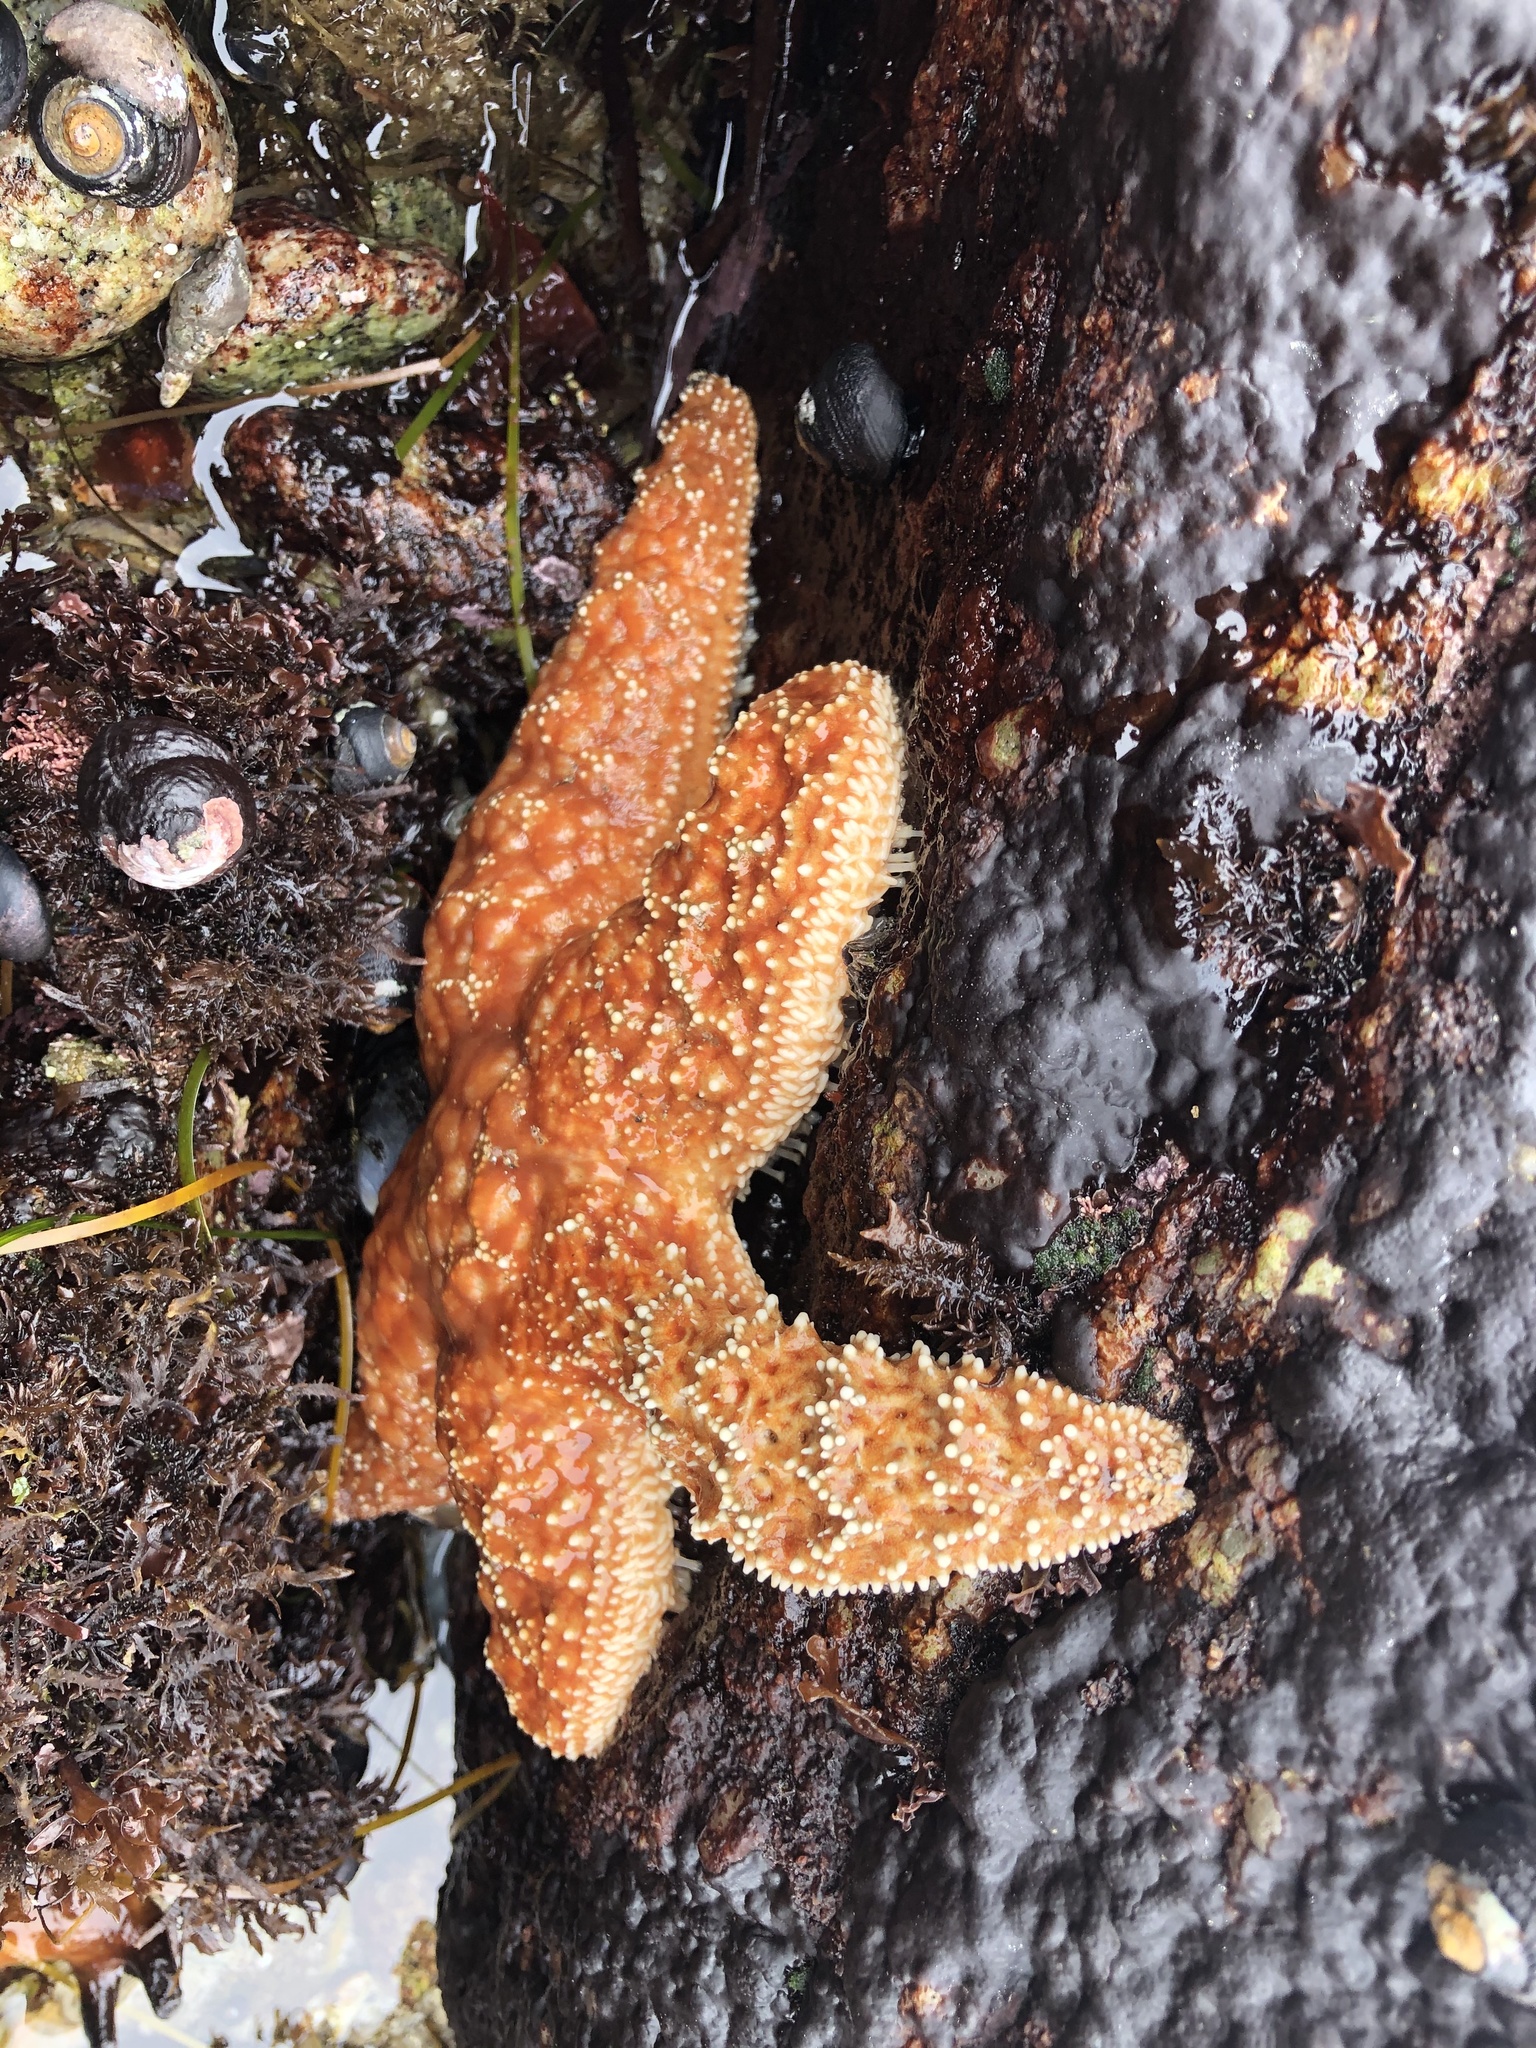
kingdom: Animalia
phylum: Echinodermata
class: Asteroidea
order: Forcipulatida
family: Asteriidae
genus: Pisaster
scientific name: Pisaster ochraceus
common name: Ochre stars
